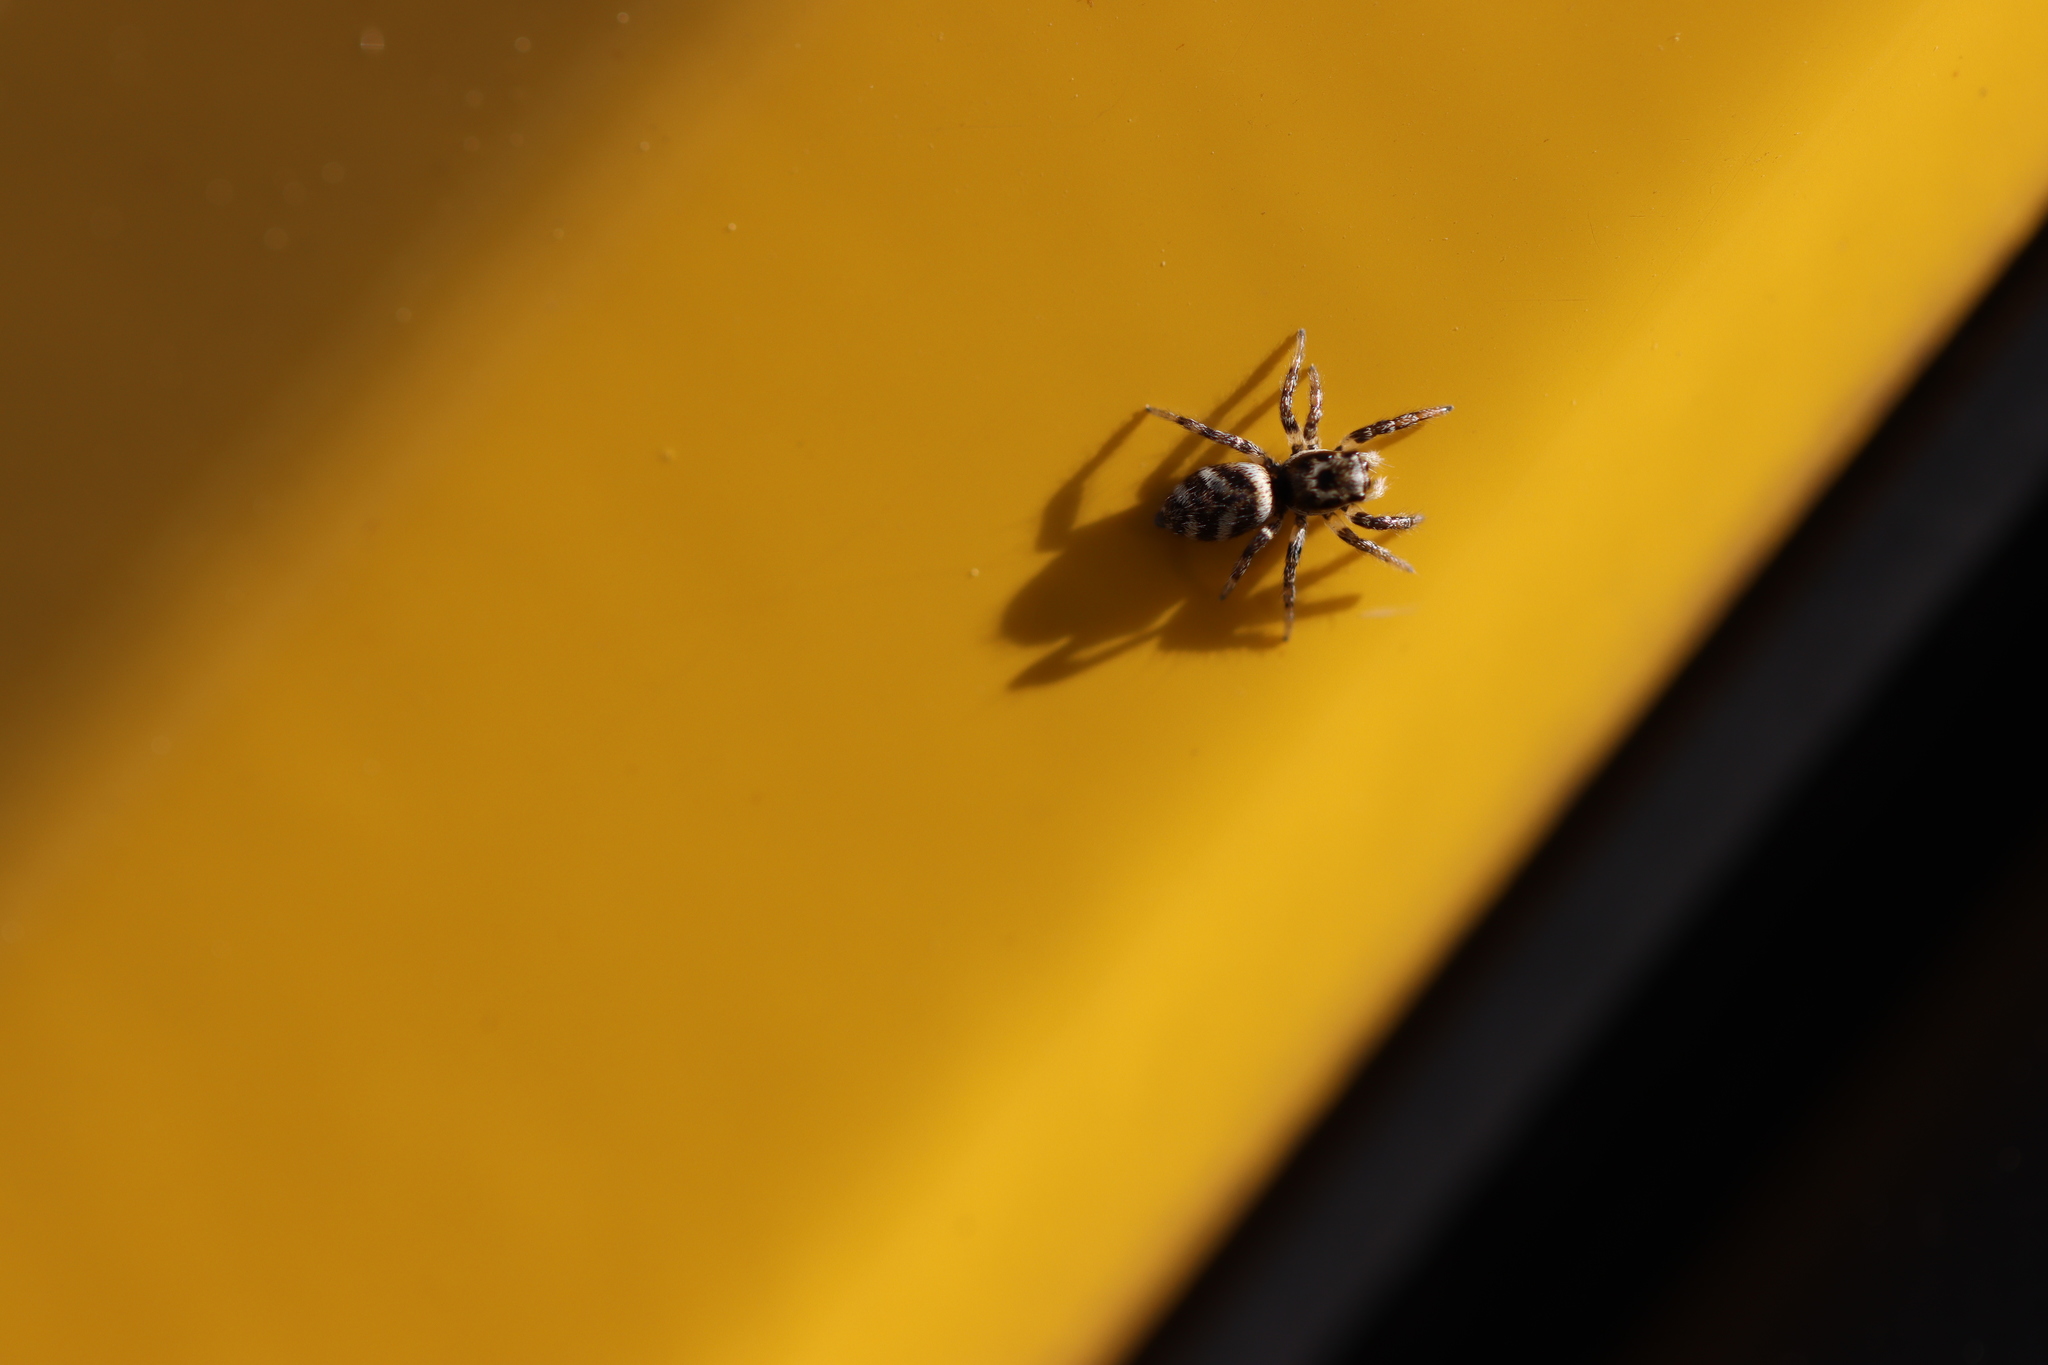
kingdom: Animalia
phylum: Arthropoda
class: Arachnida
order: Araneae
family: Salticidae
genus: Salticus
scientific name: Salticus scenicus
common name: Zebra jumper
